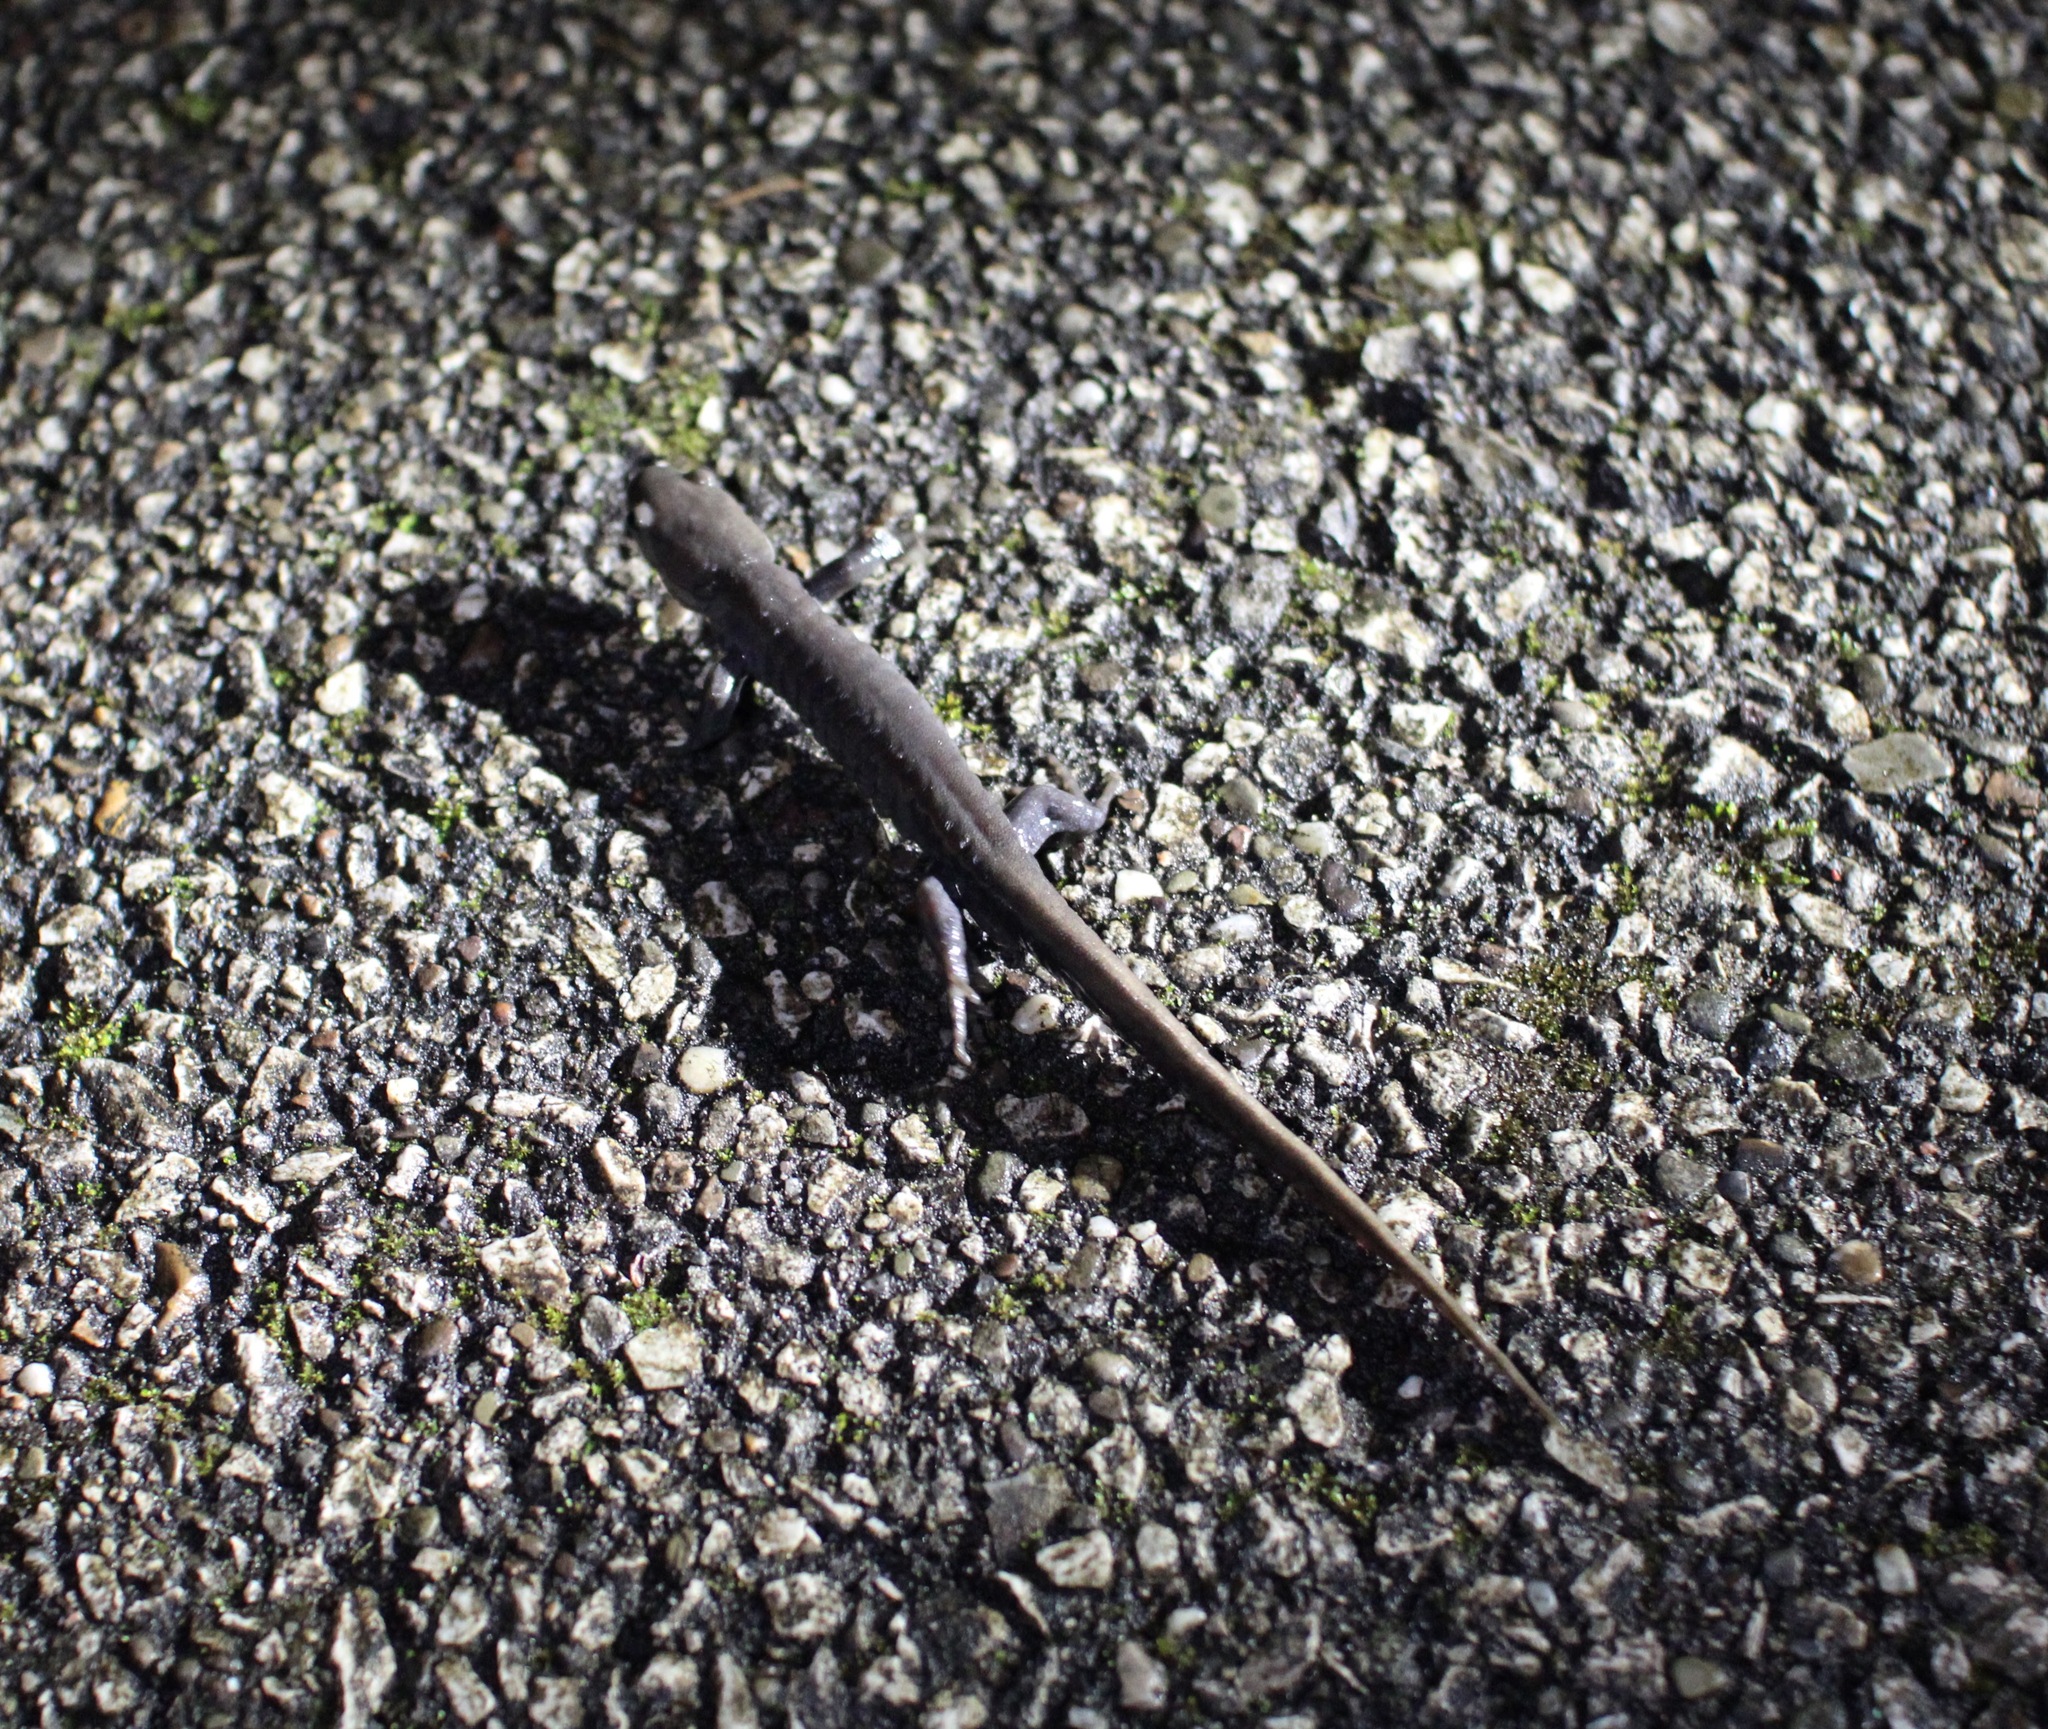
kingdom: Animalia
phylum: Chordata
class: Amphibia
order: Caudata
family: Ambystomatidae
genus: Ambystoma
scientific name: Ambystoma jeffersonianum
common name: Jefferson salamander
